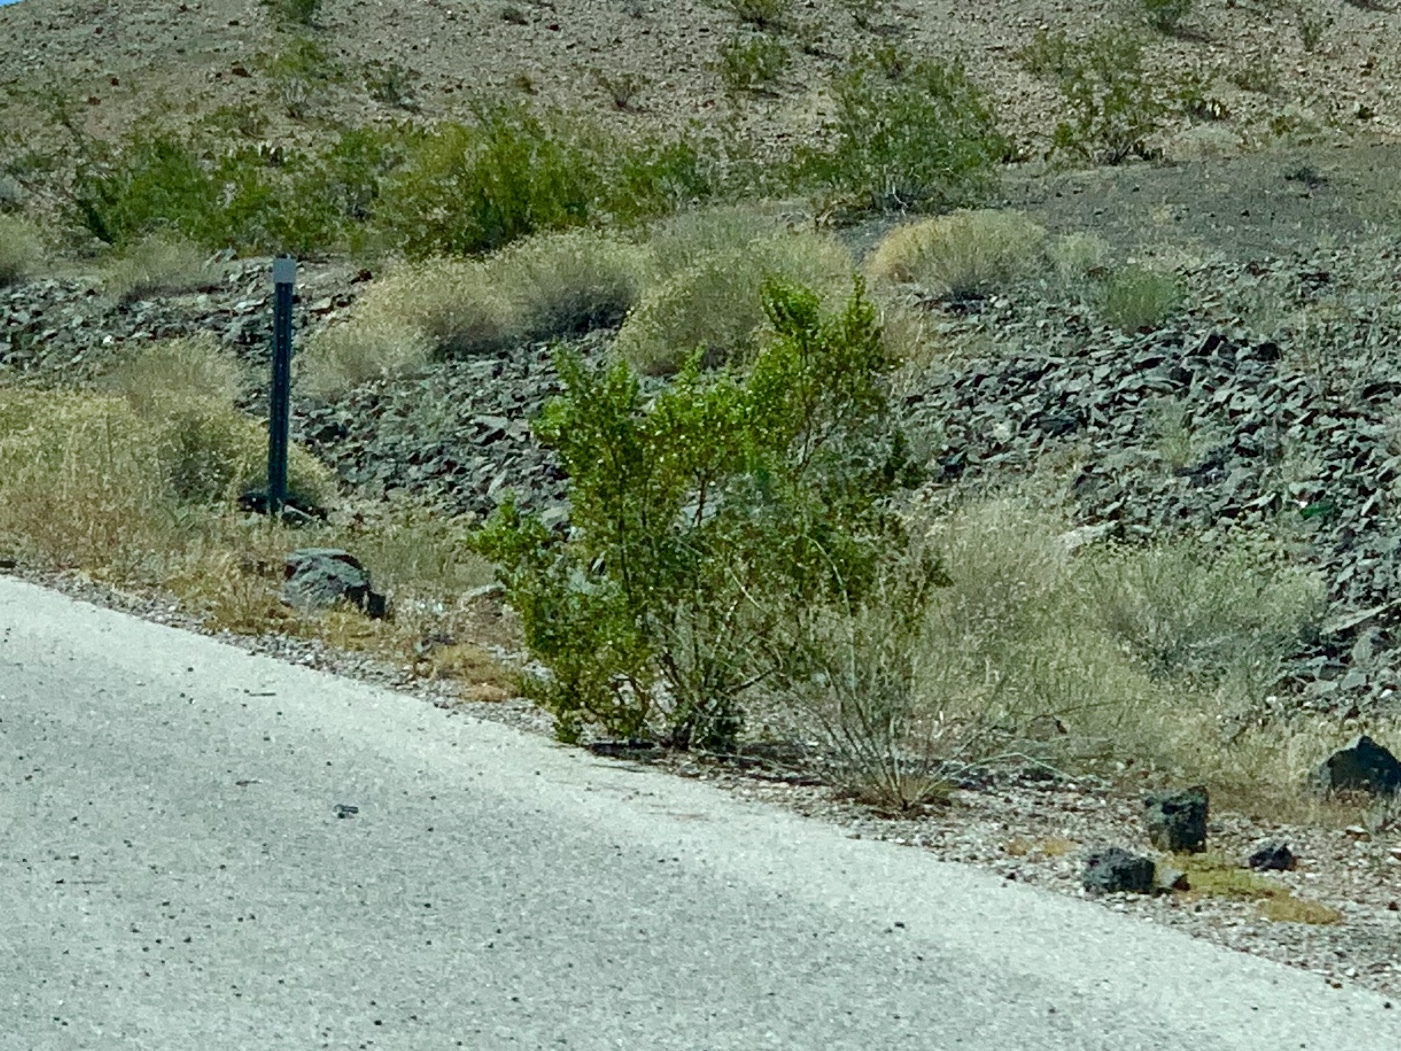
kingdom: Plantae
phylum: Tracheophyta
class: Magnoliopsida
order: Zygophyllales
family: Zygophyllaceae
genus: Larrea
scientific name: Larrea tridentata
